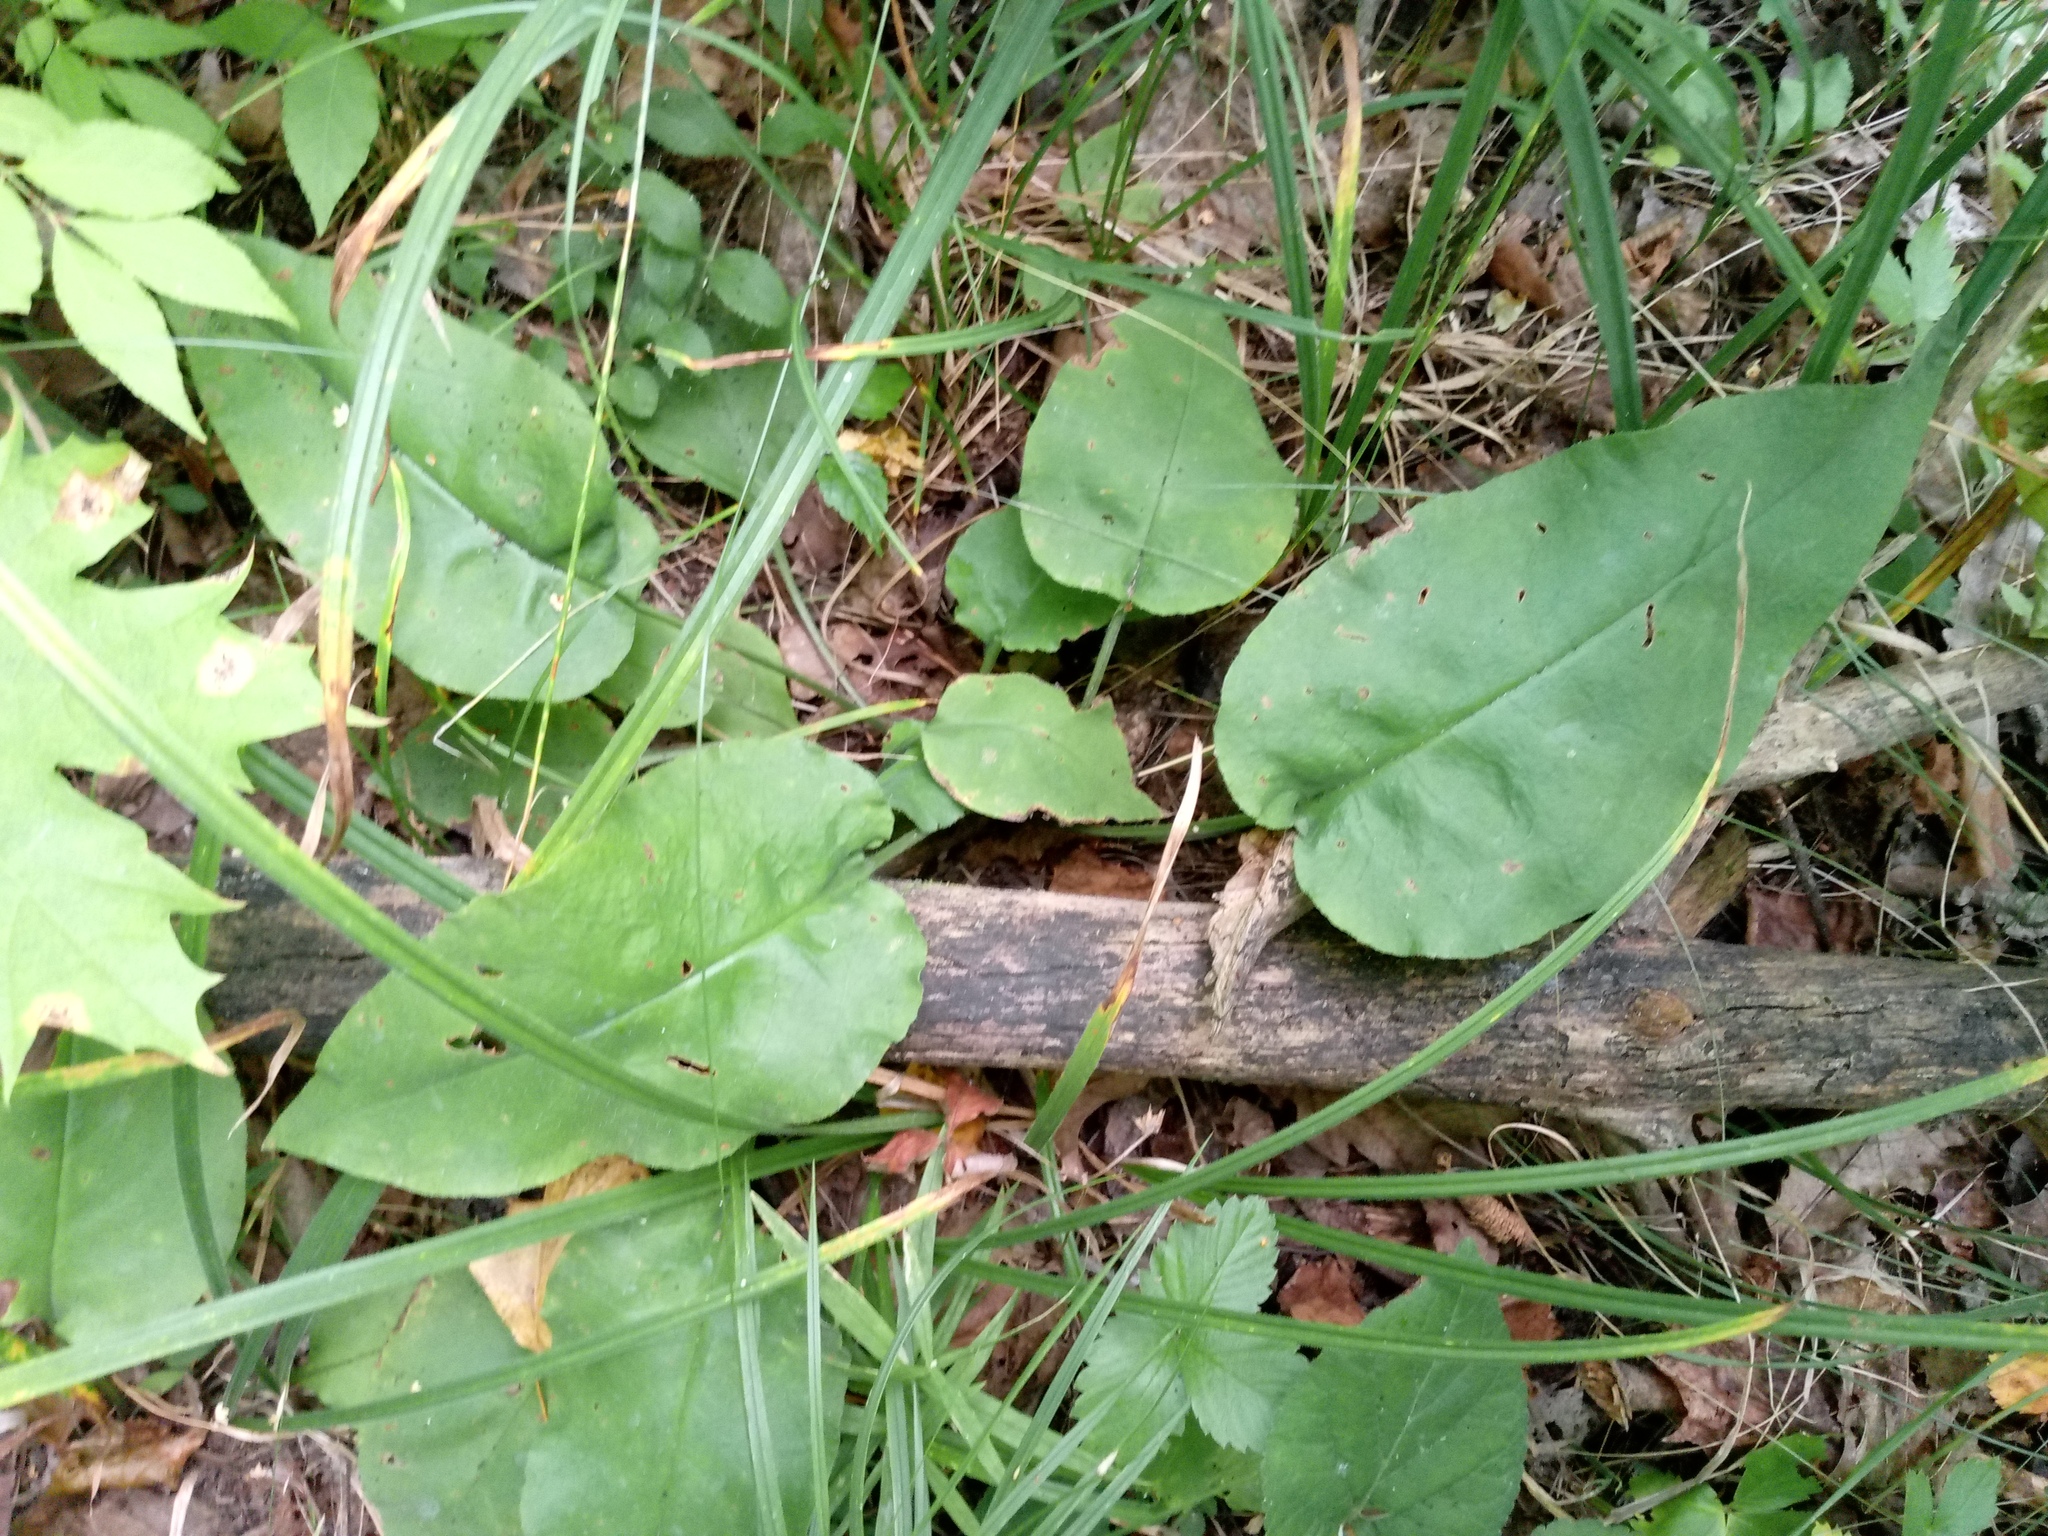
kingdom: Plantae
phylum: Tracheophyta
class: Magnoliopsida
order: Boraginales
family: Boraginaceae
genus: Pulmonaria
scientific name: Pulmonaria obscura
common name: Suffolk lungwort
